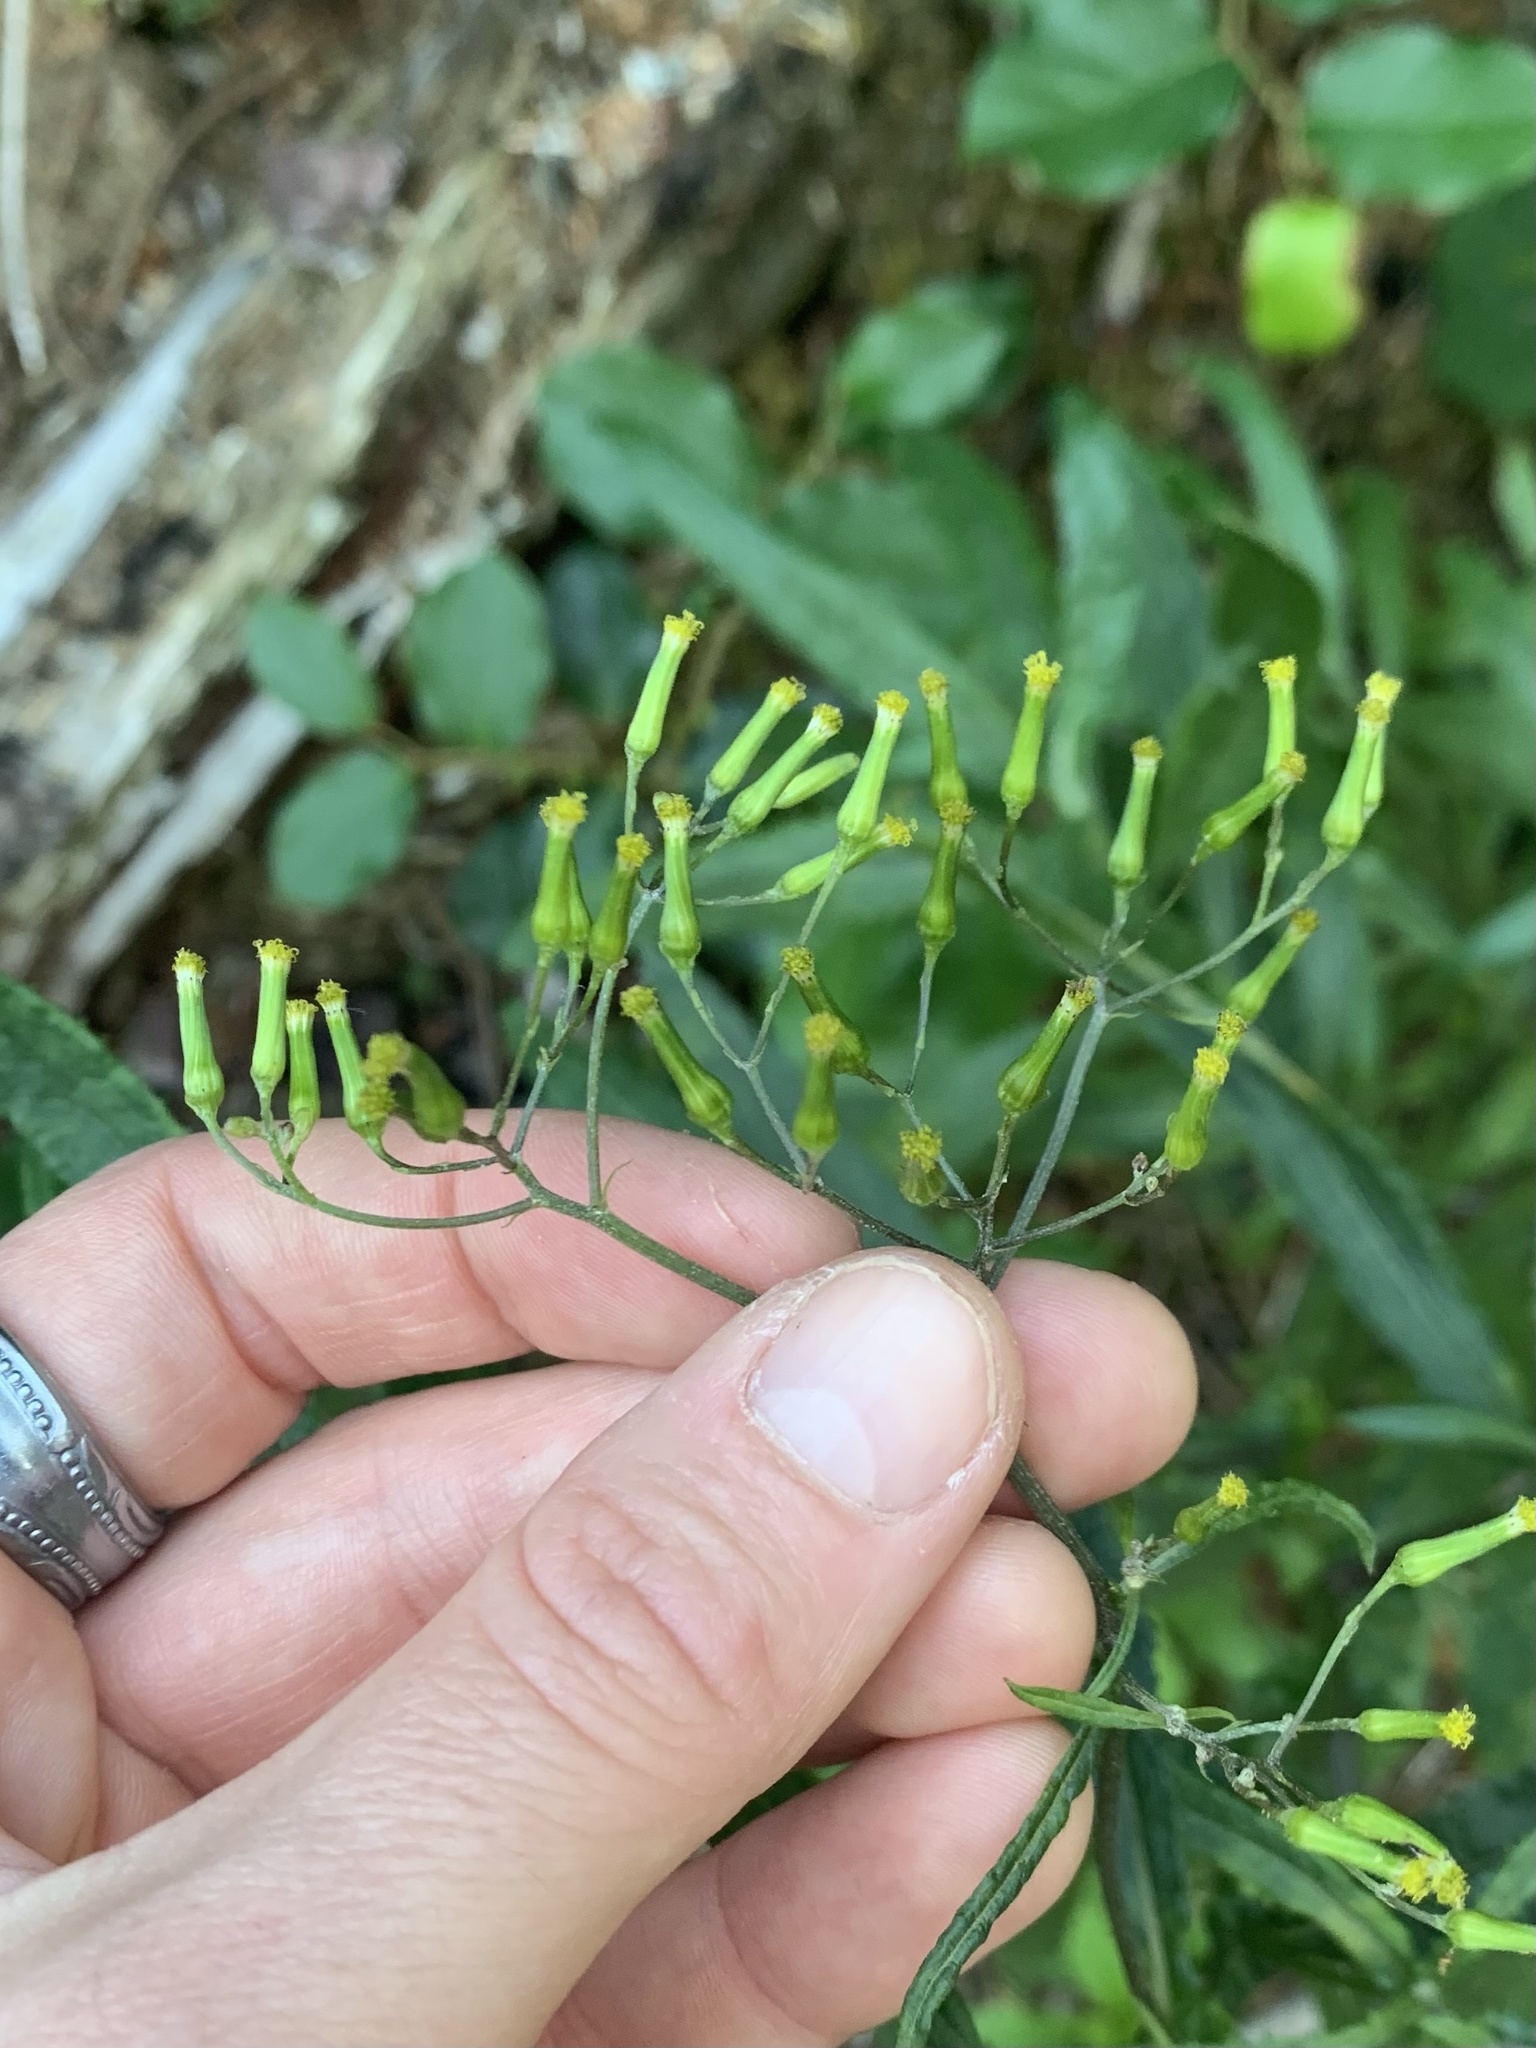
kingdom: Plantae
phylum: Tracheophyta
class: Magnoliopsida
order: Asterales
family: Asteraceae
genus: Senecio
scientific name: Senecio minimus
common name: Toothed fireweed
